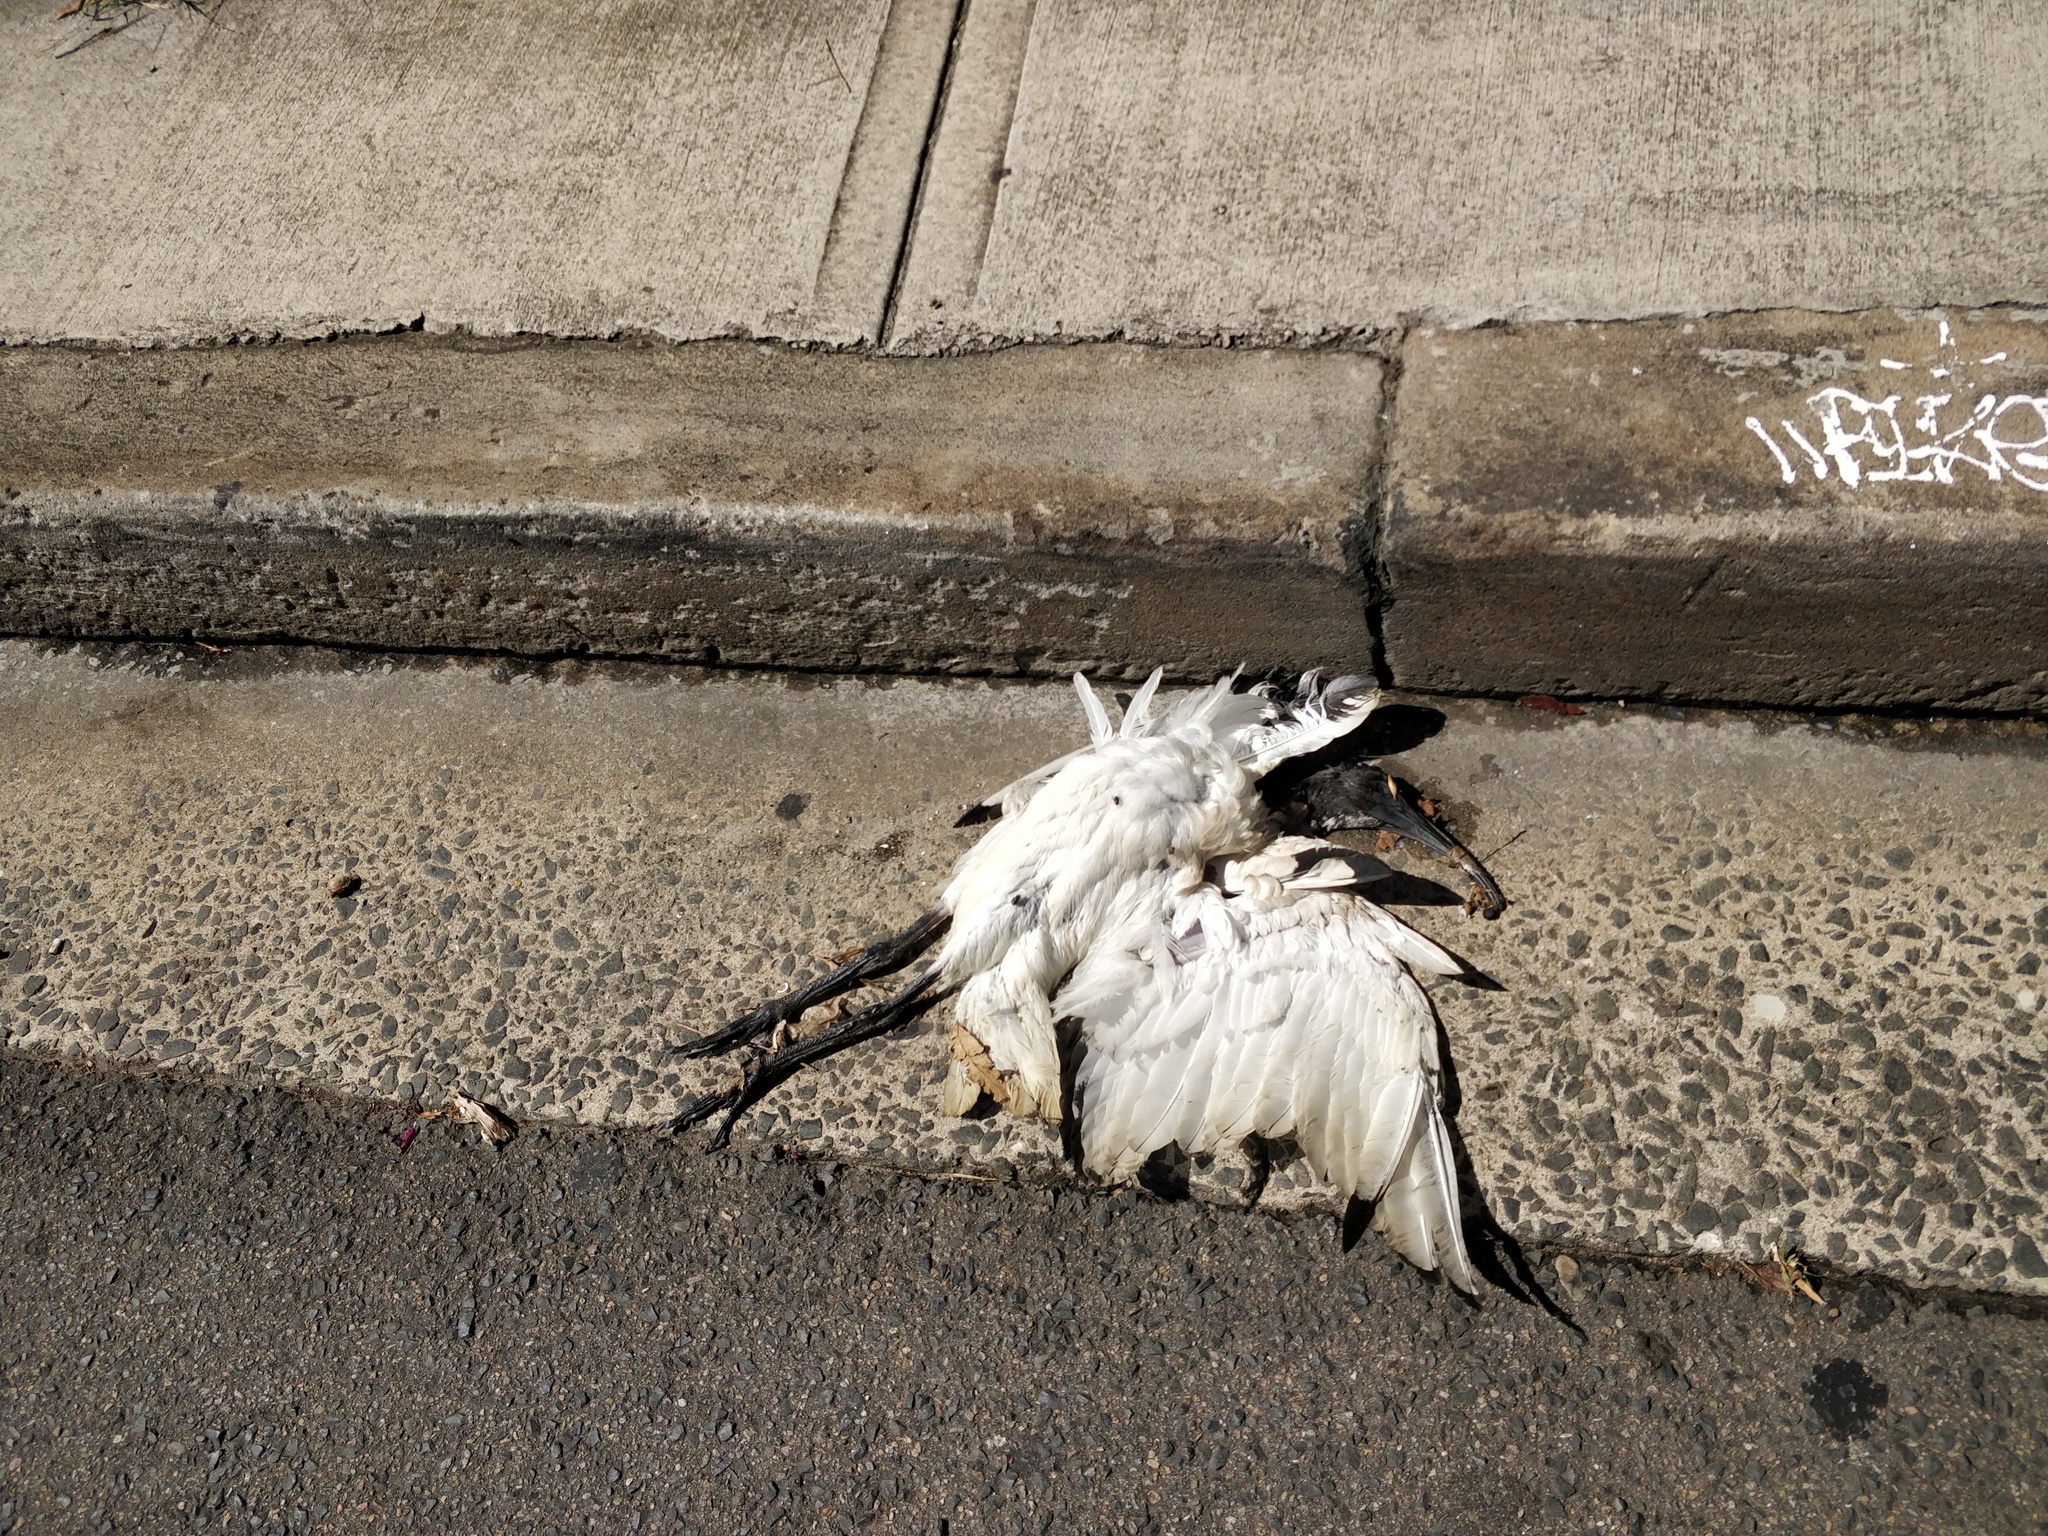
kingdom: Animalia
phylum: Chordata
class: Aves
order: Pelecaniformes
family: Threskiornithidae
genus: Threskiornis
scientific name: Threskiornis molucca
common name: Australian white ibis
